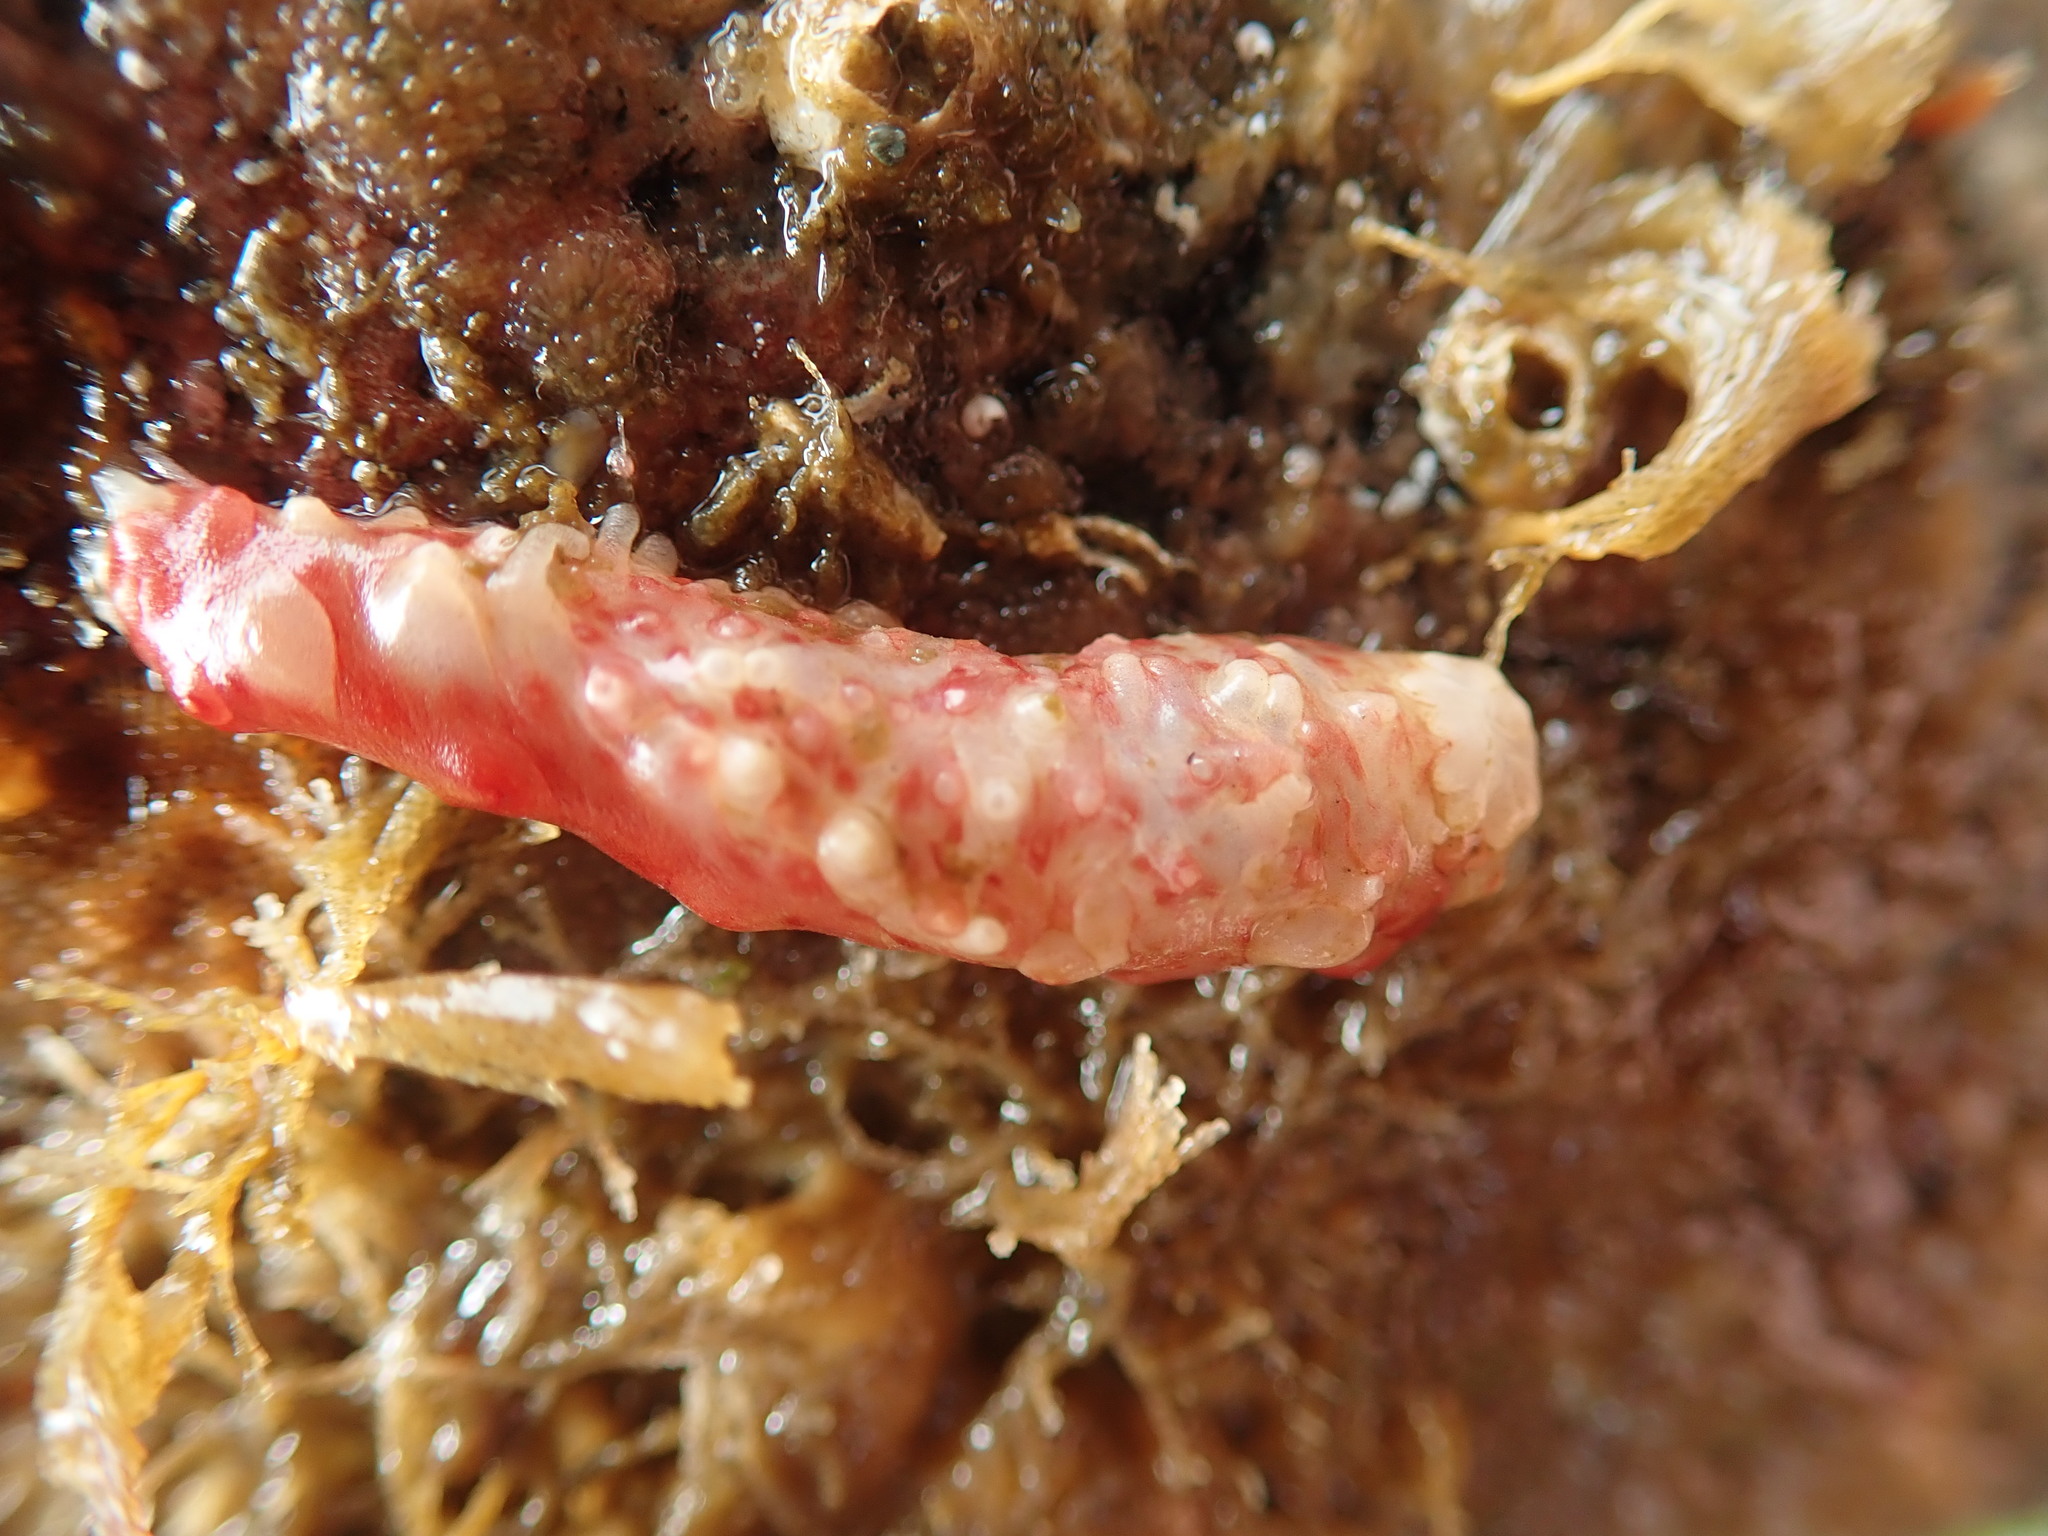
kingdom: Animalia
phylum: Echinodermata
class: Holothuroidea
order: Synallactida
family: Stichopodidae
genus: Apostichopus
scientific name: Apostichopus californicus
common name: California sea cucumber
